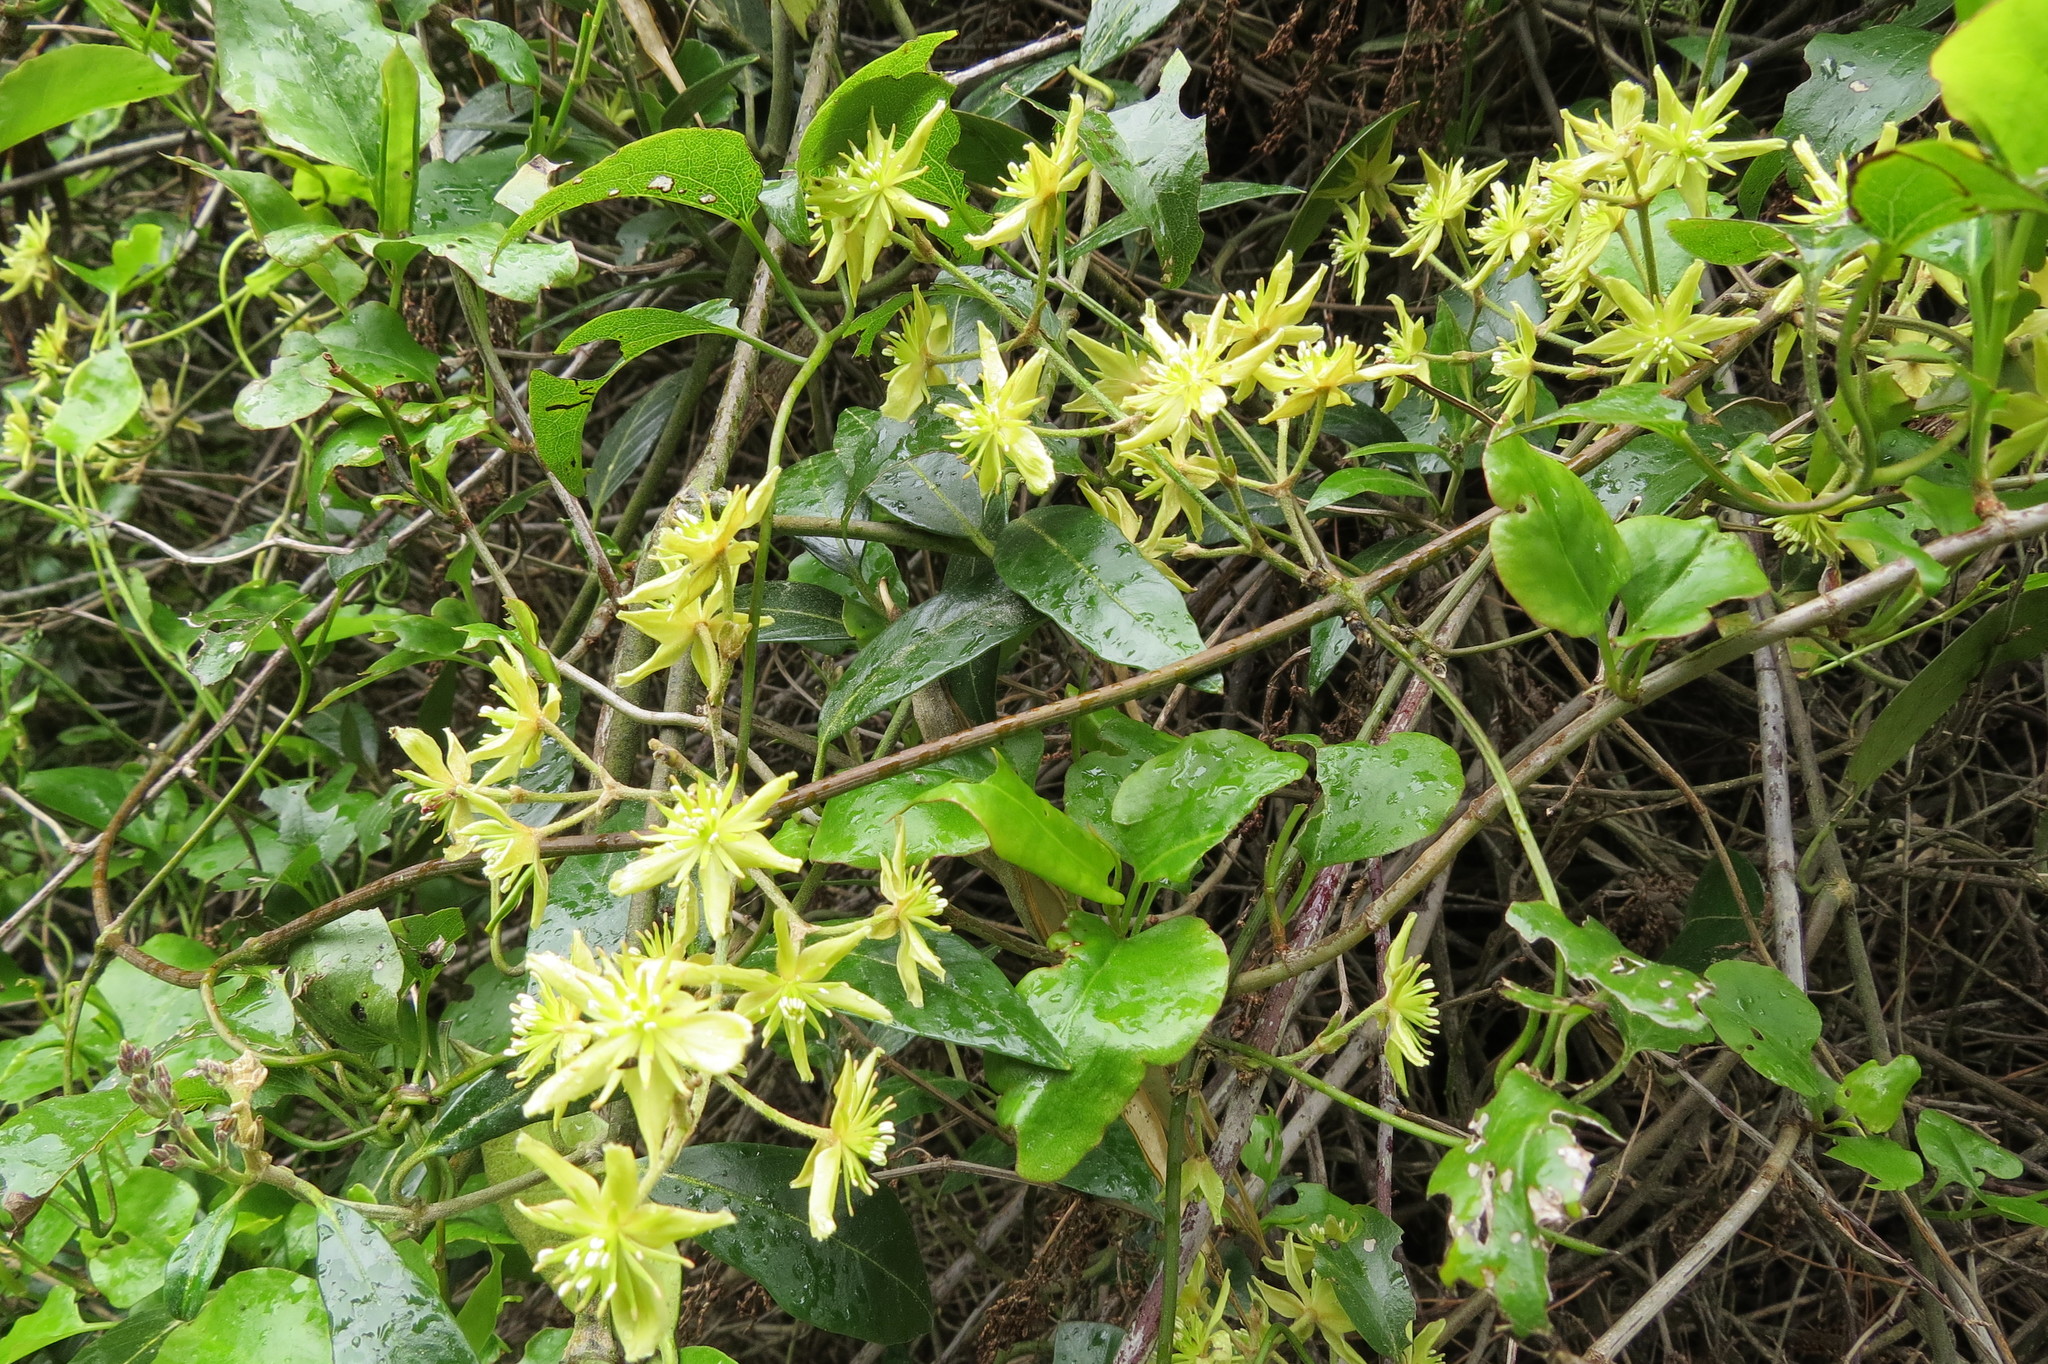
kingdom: Plantae
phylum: Tracheophyta
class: Magnoliopsida
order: Ranunculales
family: Ranunculaceae
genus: Clematis
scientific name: Clematis foetida
